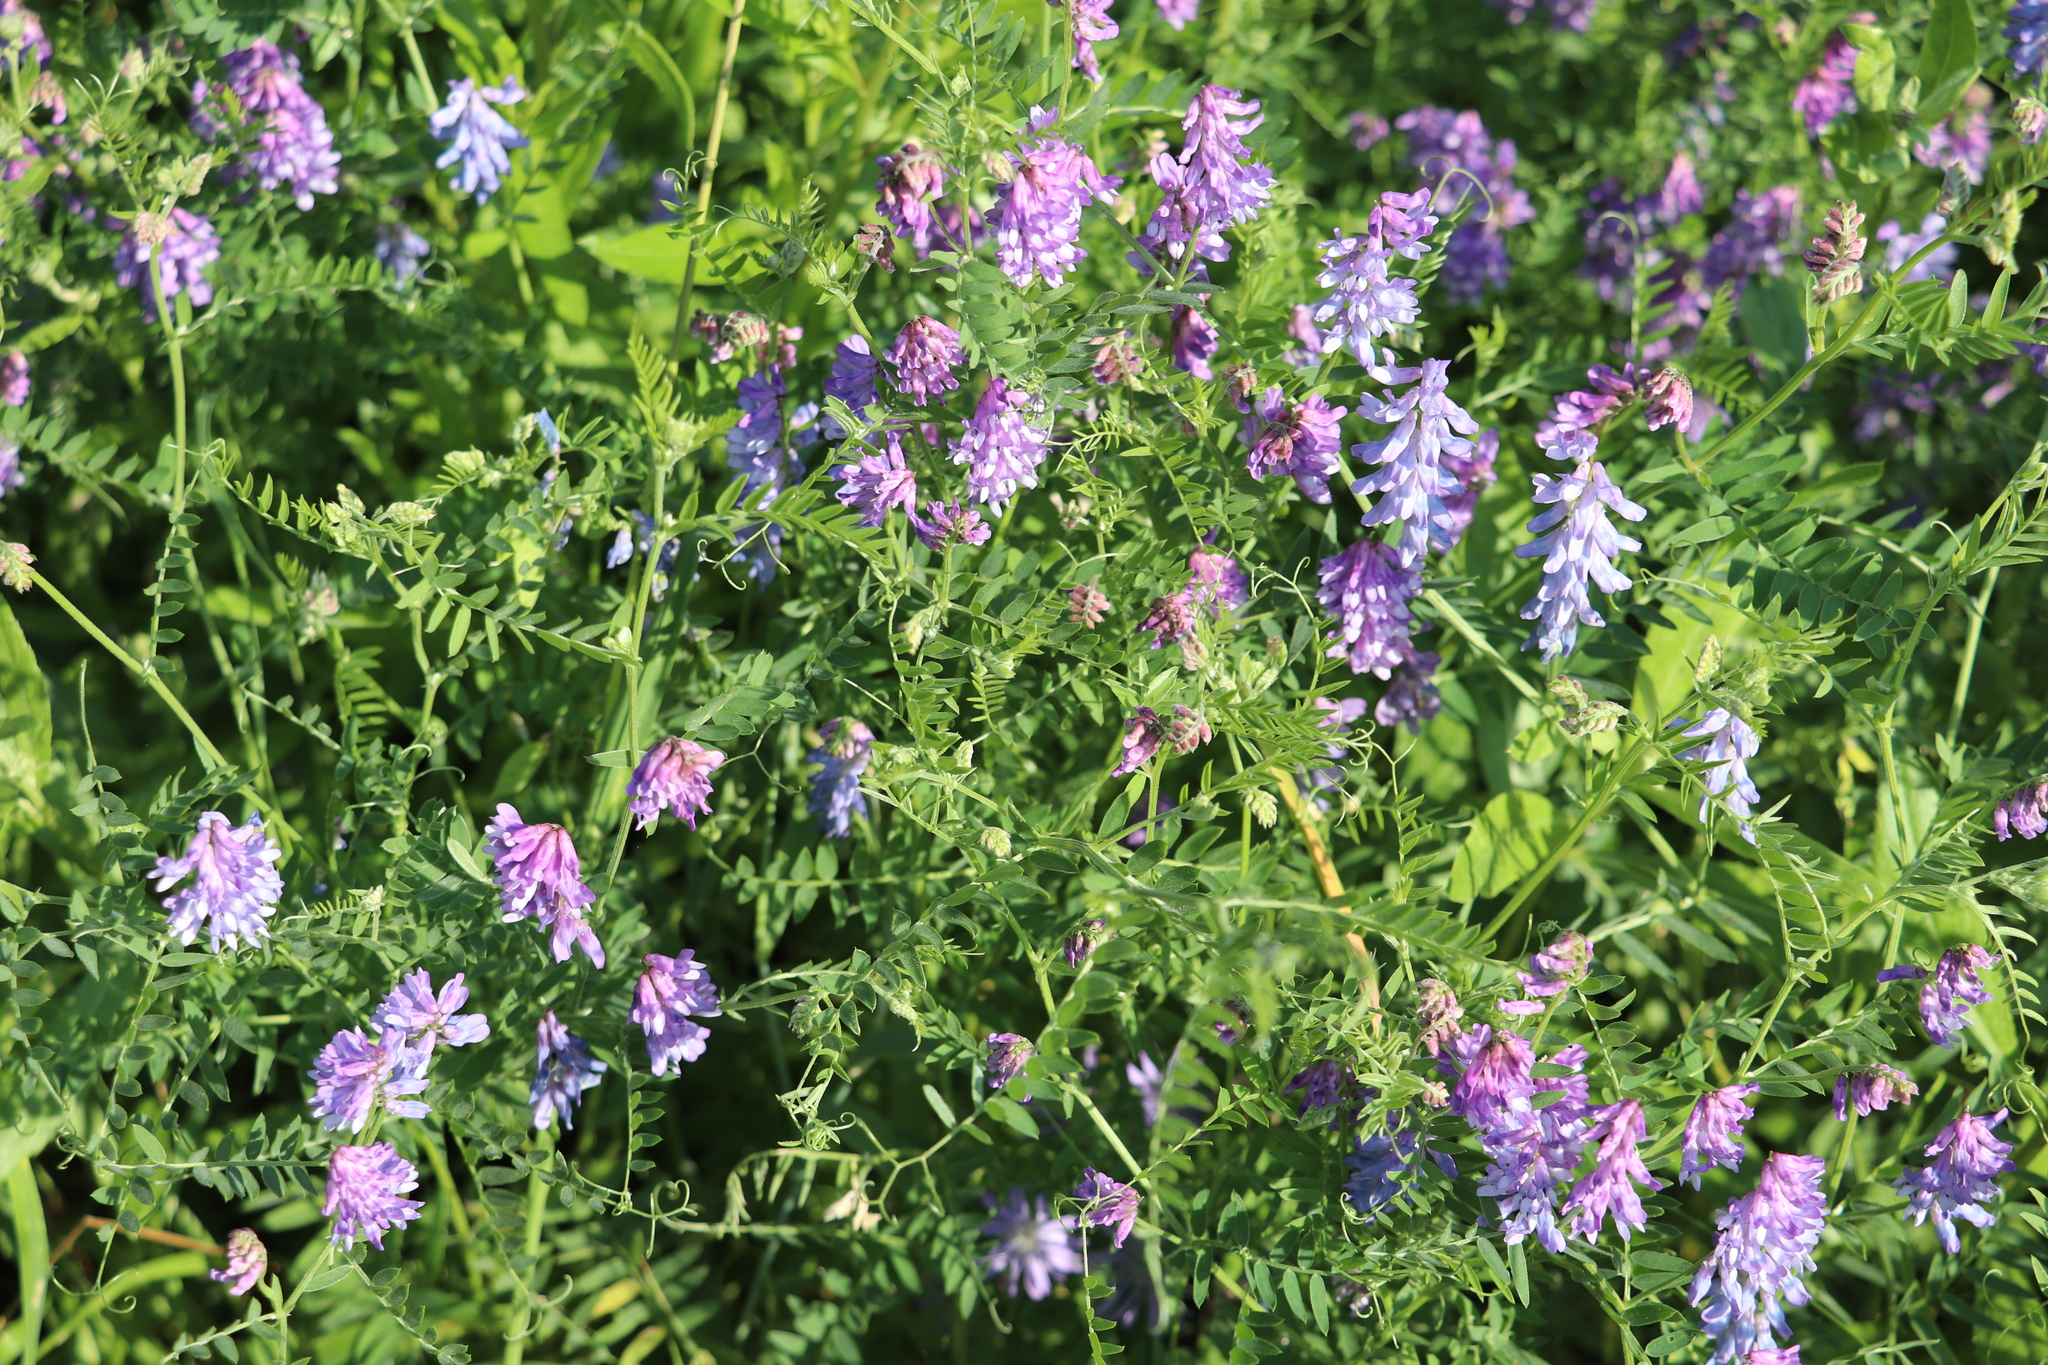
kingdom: Plantae
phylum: Tracheophyta
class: Magnoliopsida
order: Fabales
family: Fabaceae
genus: Vicia
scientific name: Vicia cracca
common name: Bird vetch
